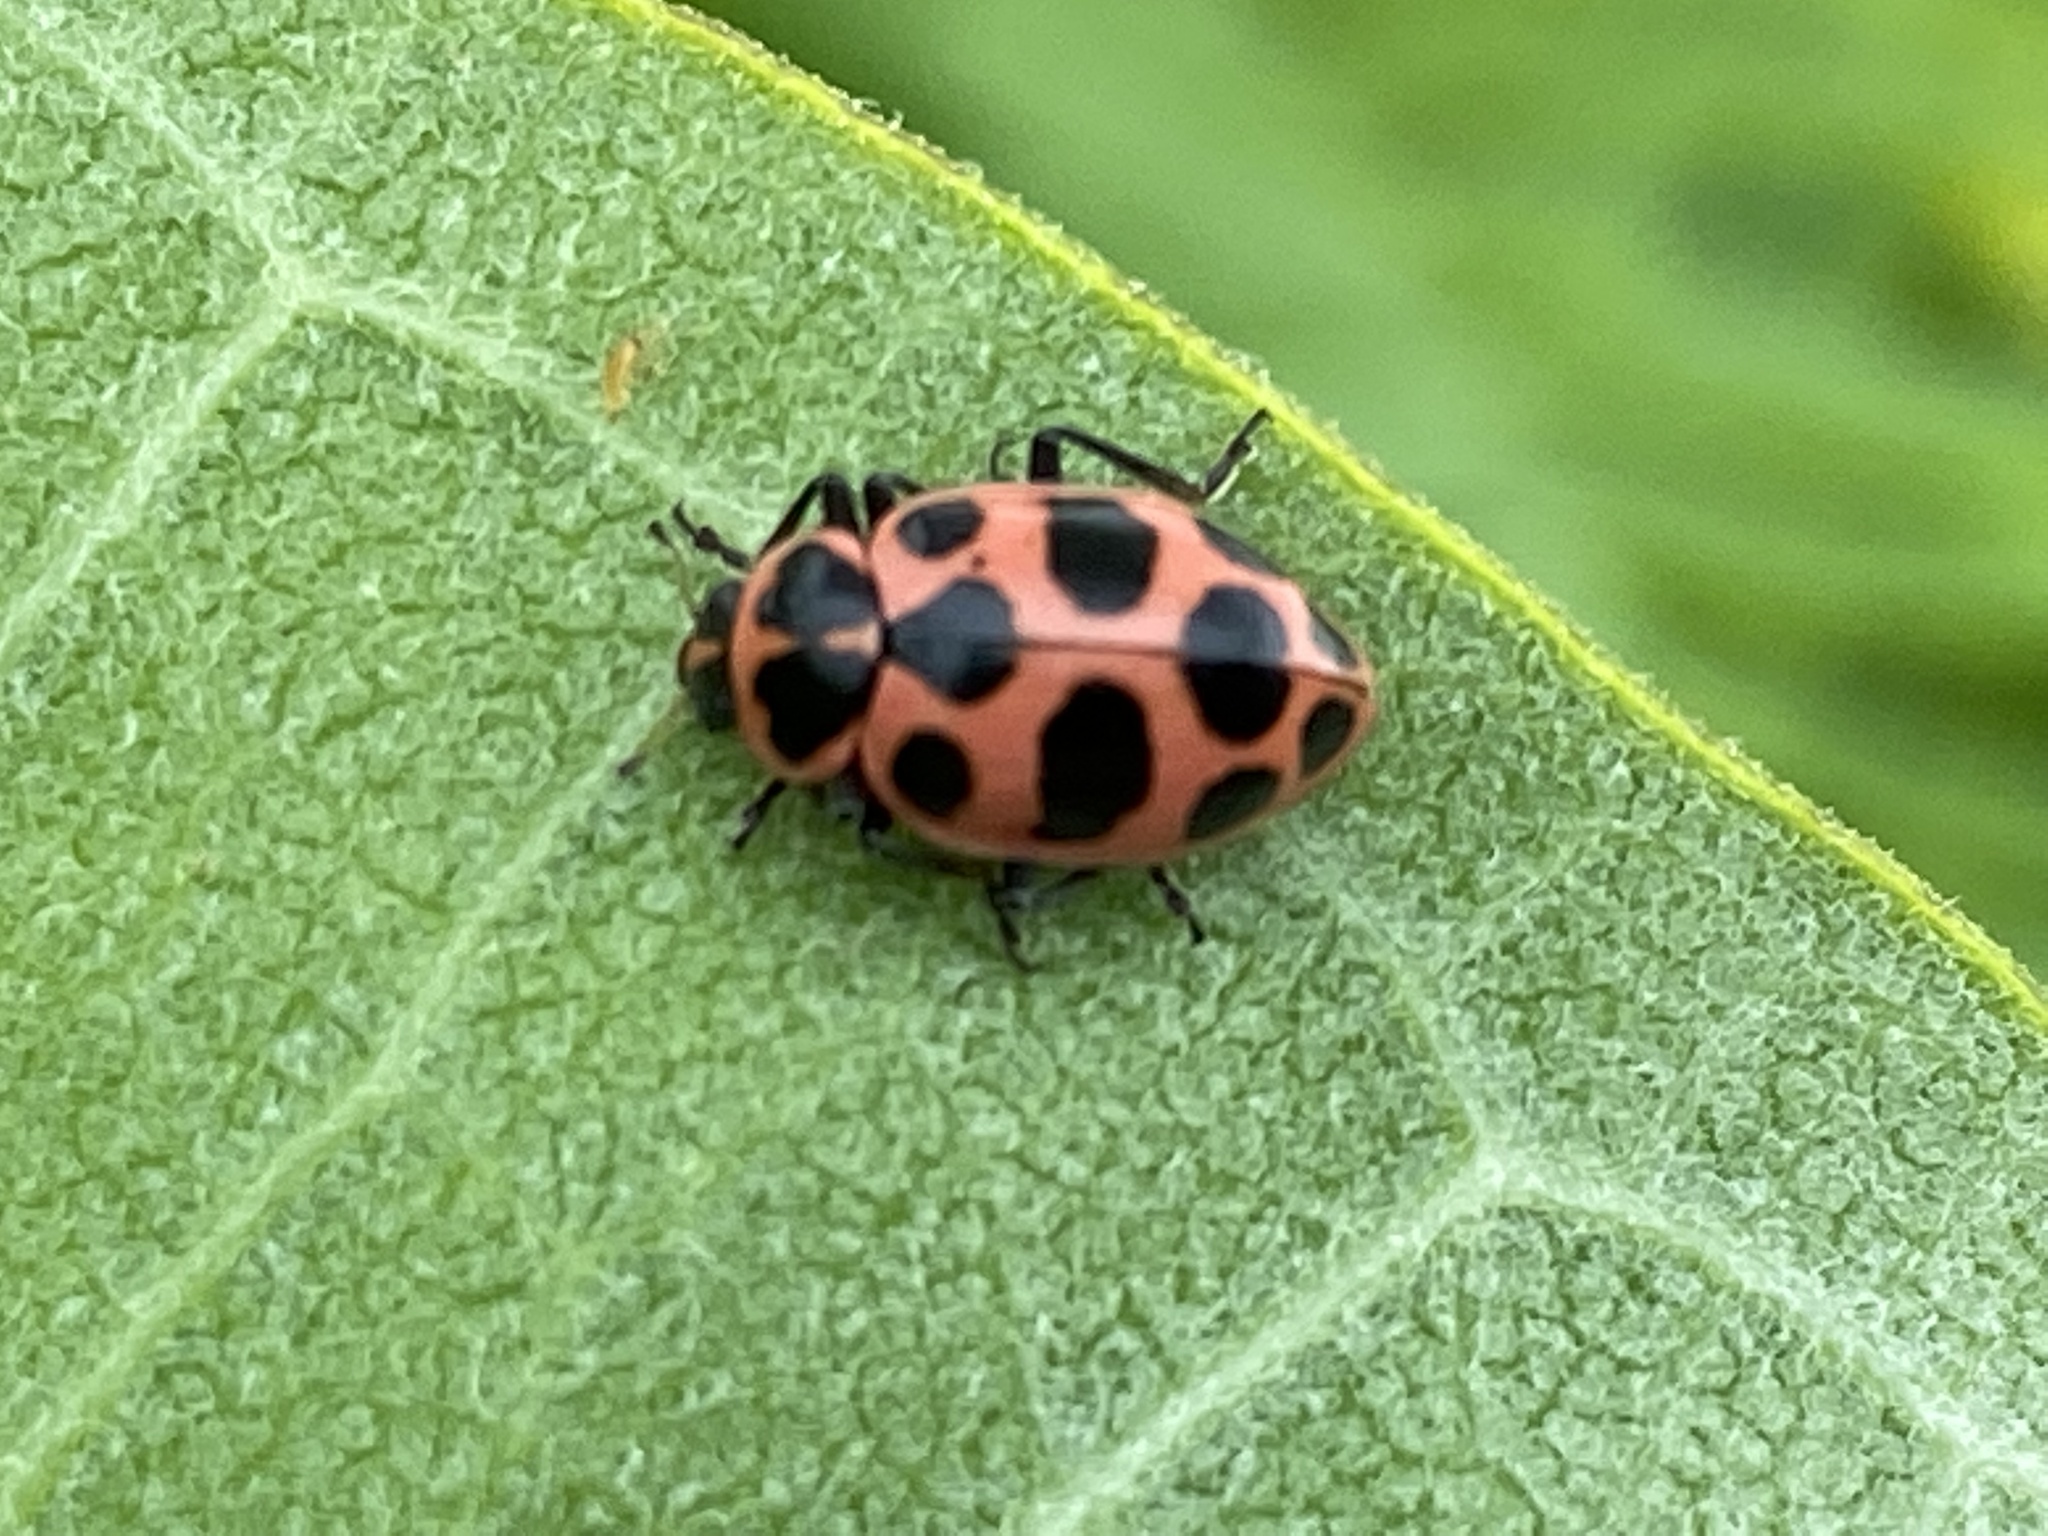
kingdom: Animalia
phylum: Arthropoda
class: Insecta
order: Coleoptera
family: Coccinellidae
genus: Coleomegilla
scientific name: Coleomegilla maculata
